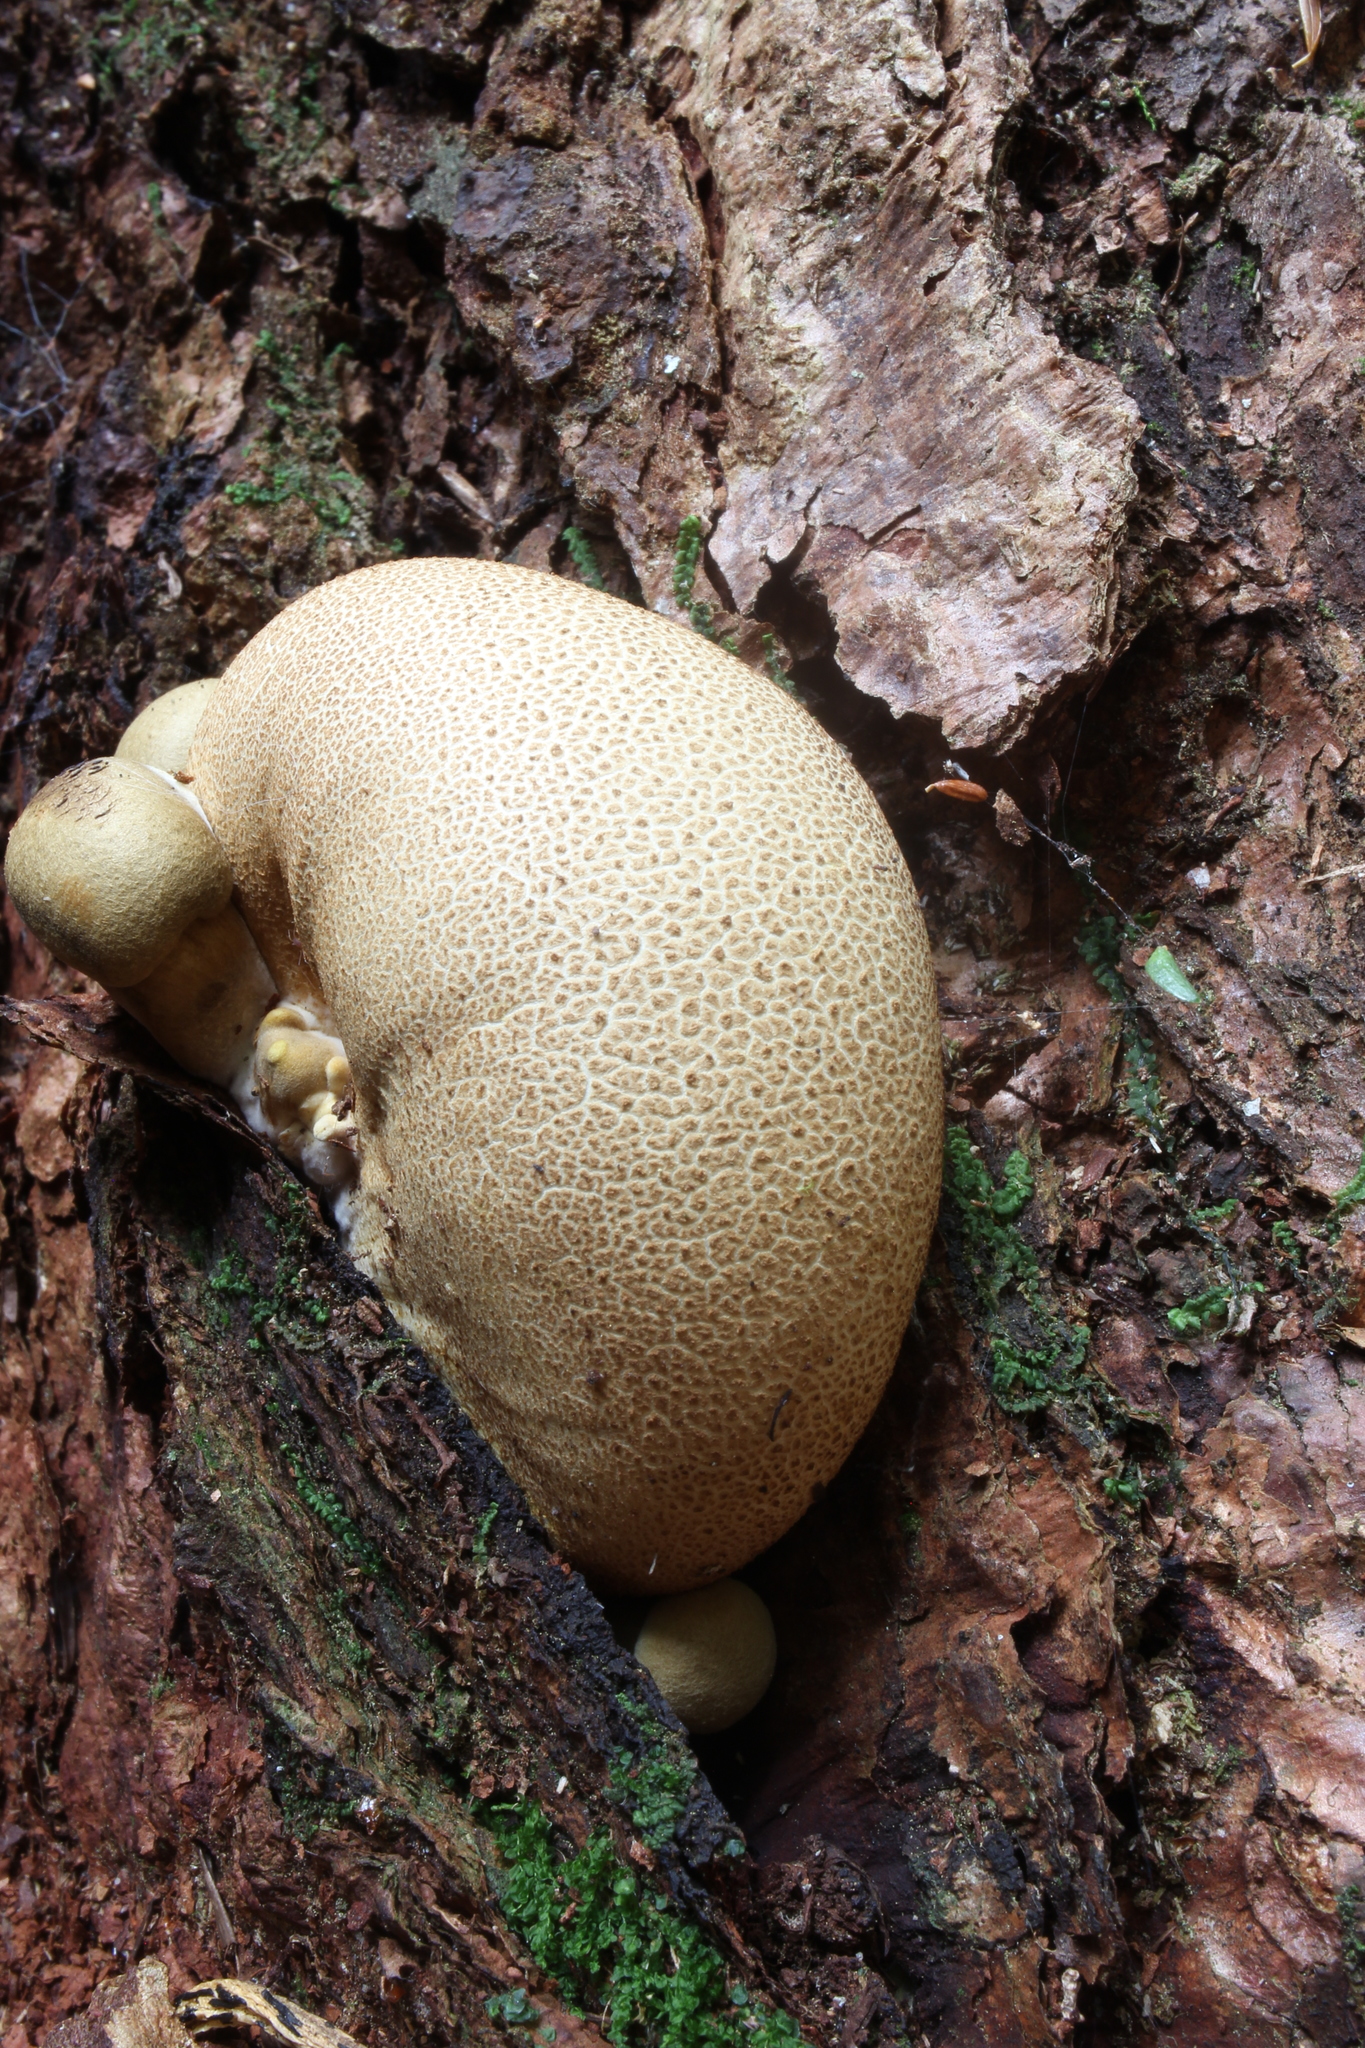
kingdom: Fungi
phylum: Basidiomycota
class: Agaricomycetes
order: Boletales
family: Boletaceae
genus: Pseudoboletus
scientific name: Pseudoboletus parasiticus
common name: Parasitic bolete
